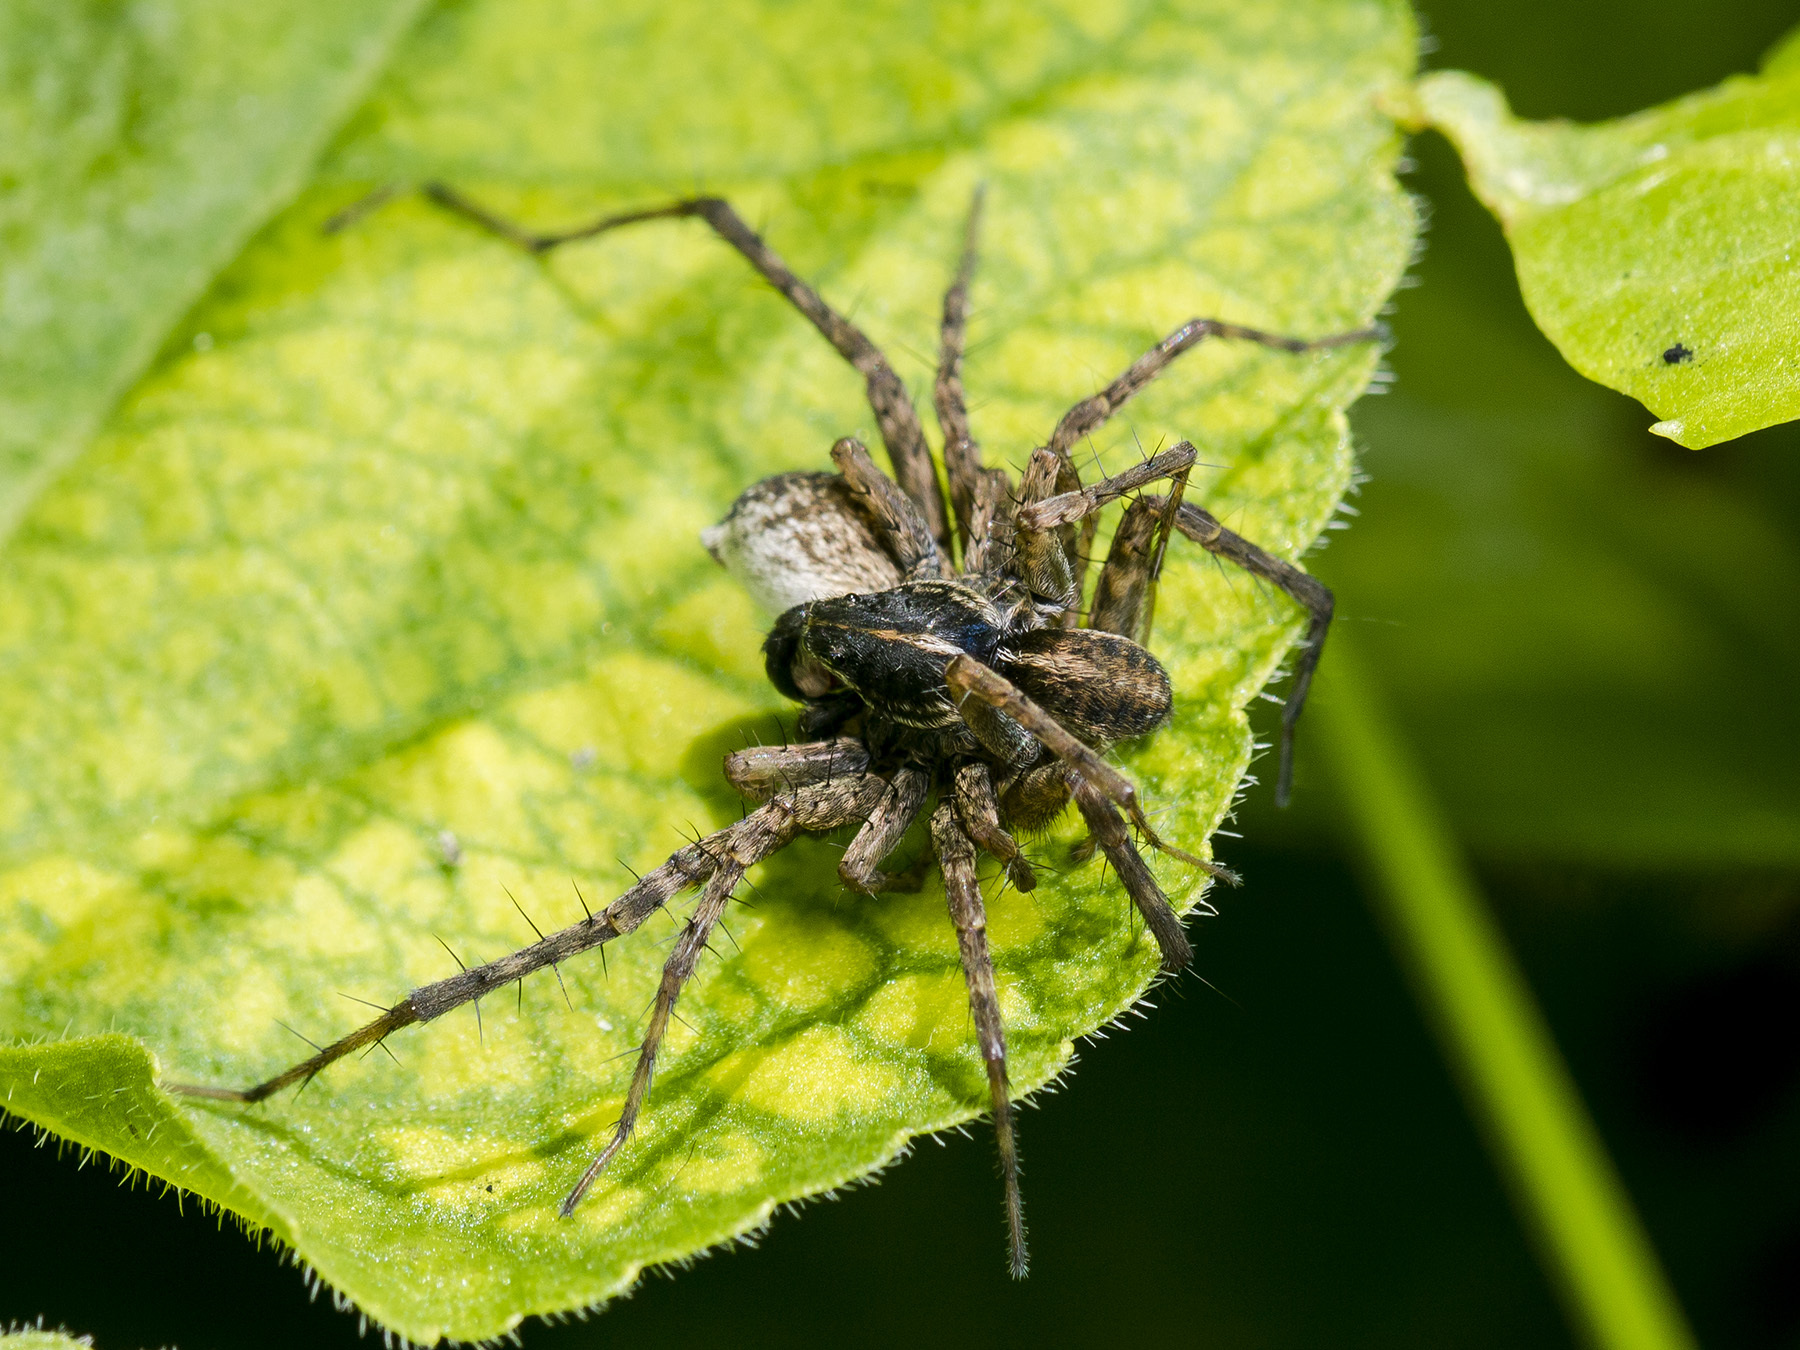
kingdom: Animalia
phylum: Arthropoda
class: Arachnida
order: Araneae
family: Lycosidae
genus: Pardosa
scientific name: Pardosa zonsteini
